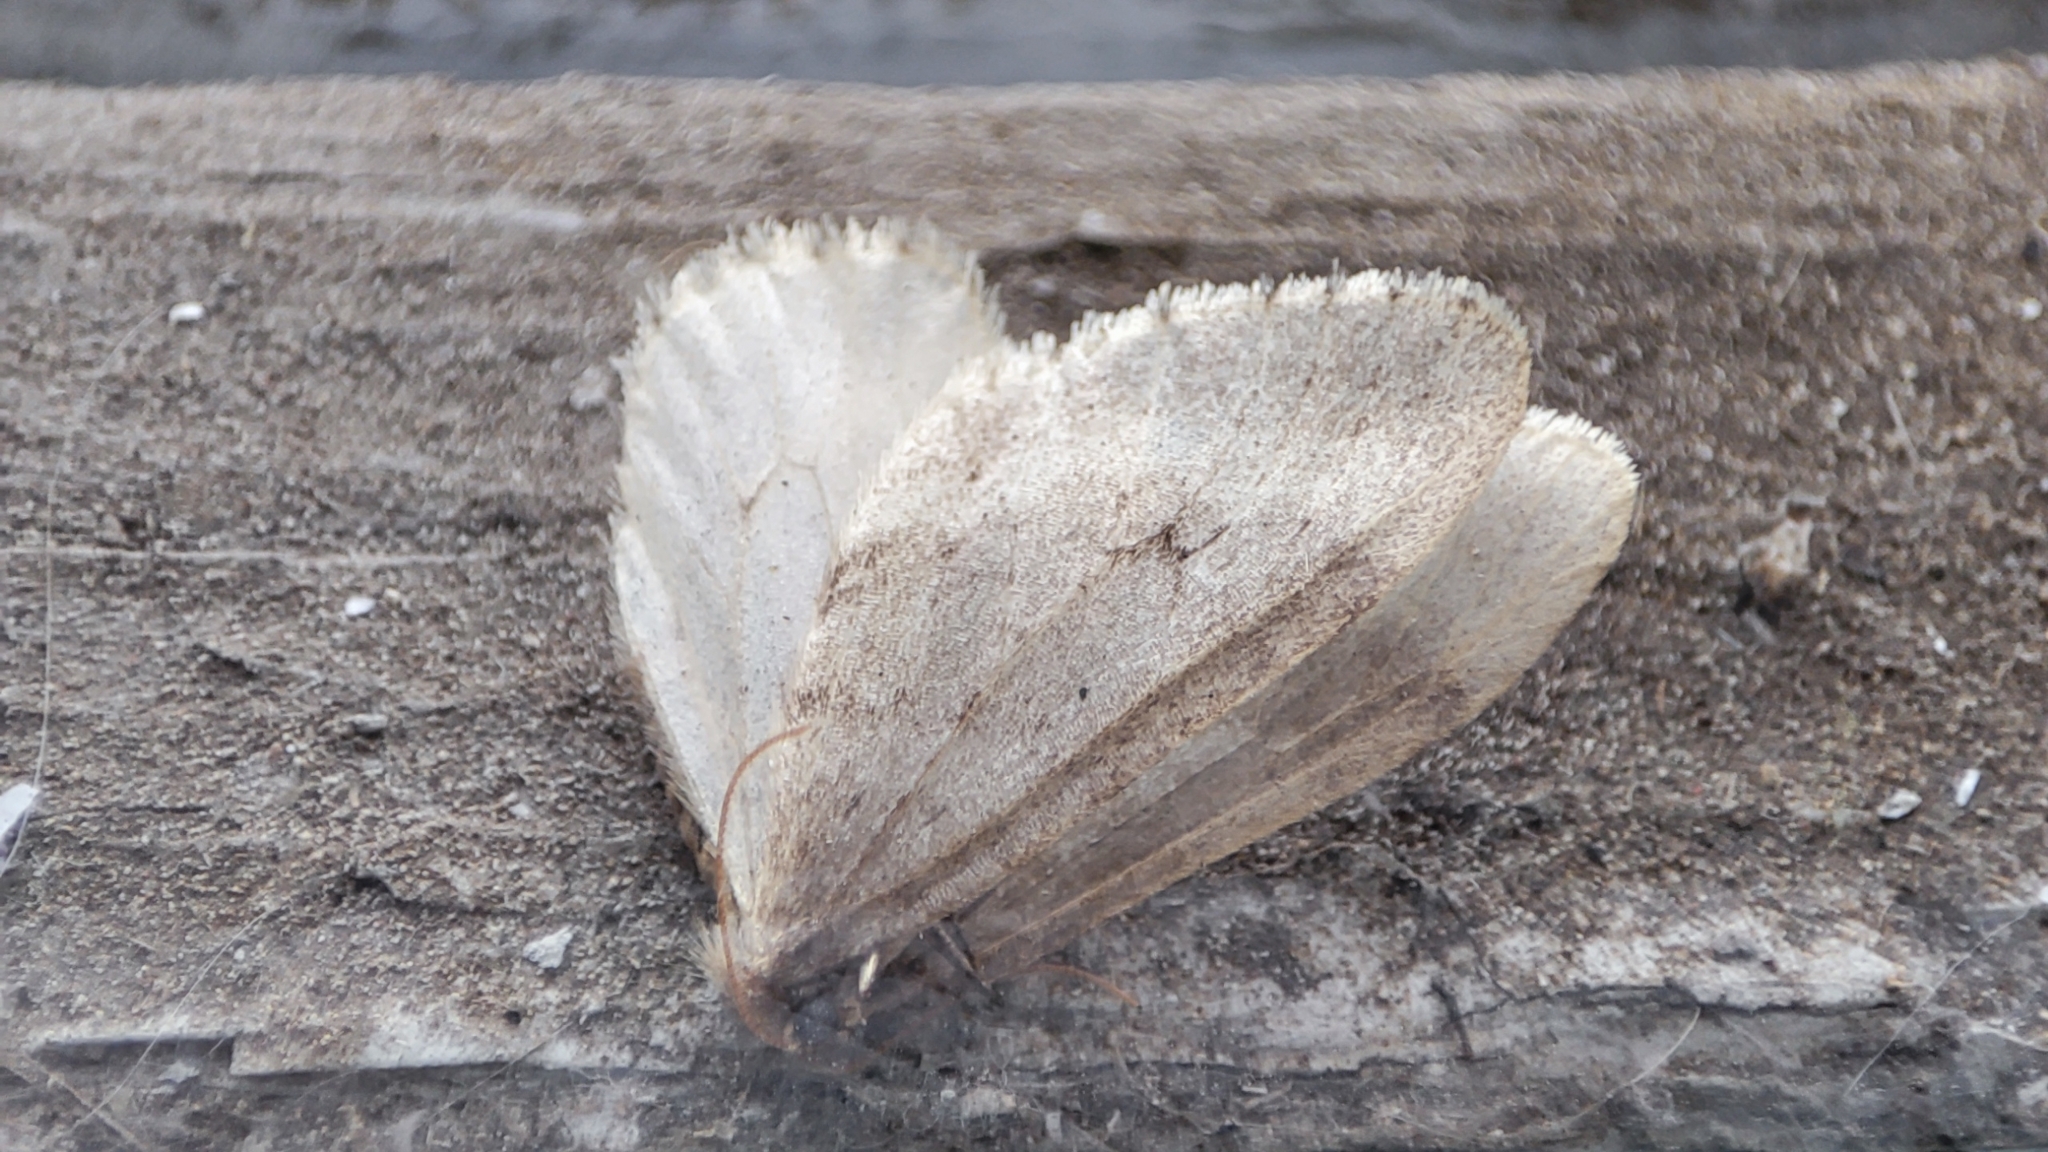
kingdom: Animalia
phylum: Arthropoda
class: Insecta
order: Lepidoptera
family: Geometridae
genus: Operophtera
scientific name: Operophtera fagata
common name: Northern winter moth
